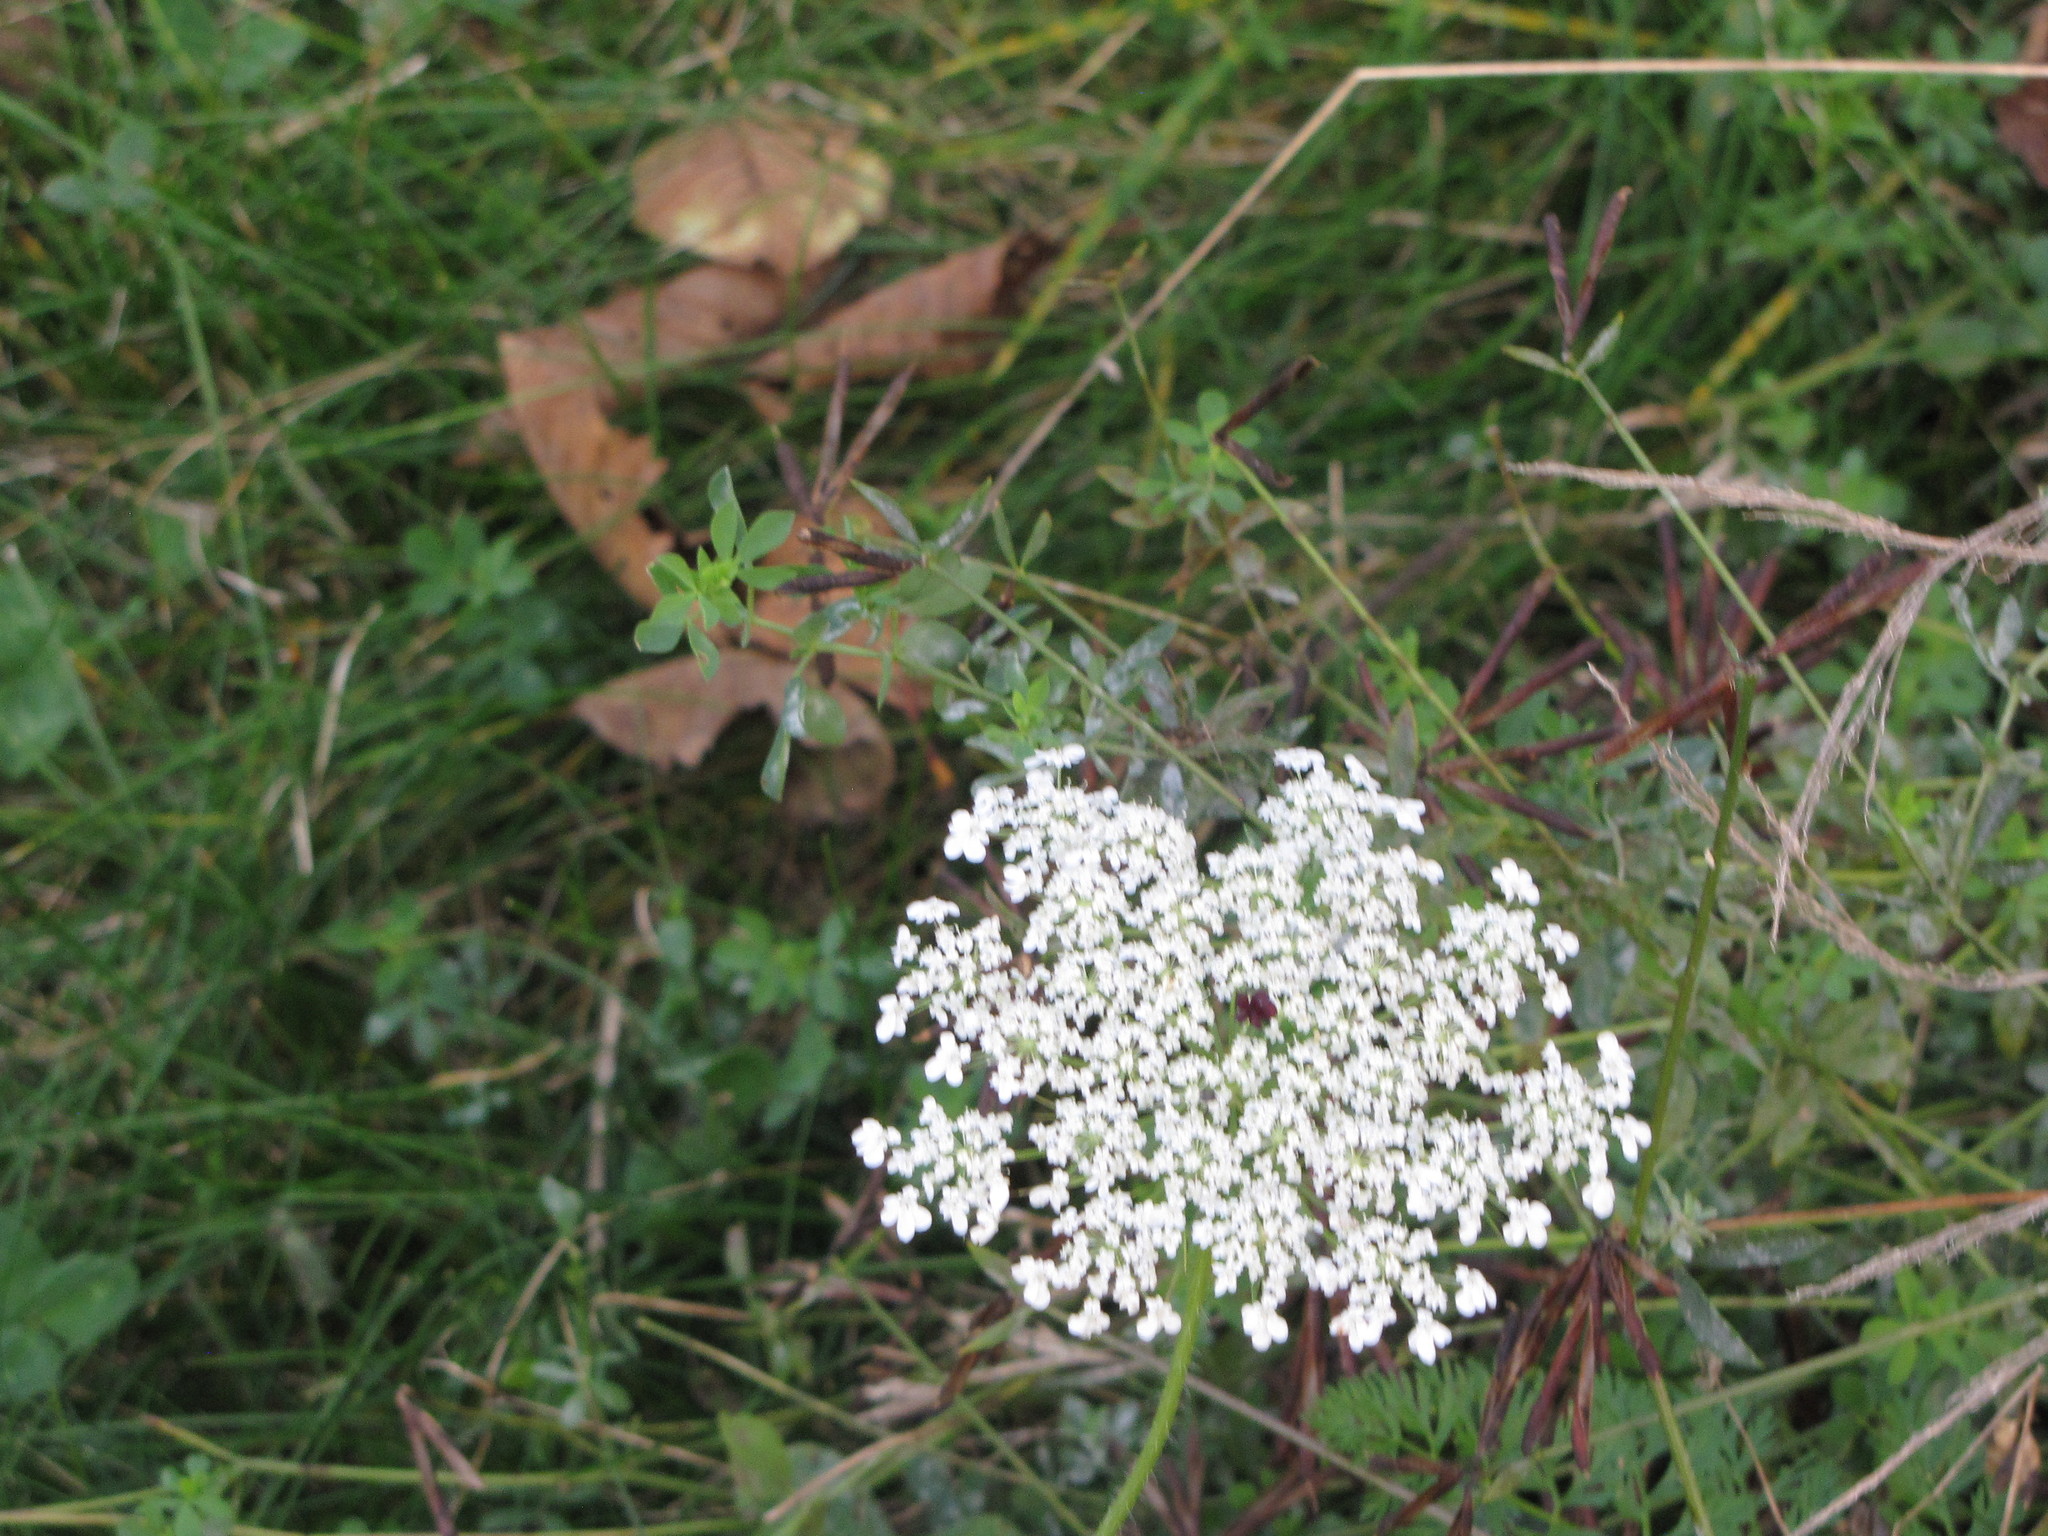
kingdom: Plantae
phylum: Tracheophyta
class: Magnoliopsida
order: Apiales
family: Apiaceae
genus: Daucus
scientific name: Daucus carota
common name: Wild carrot
